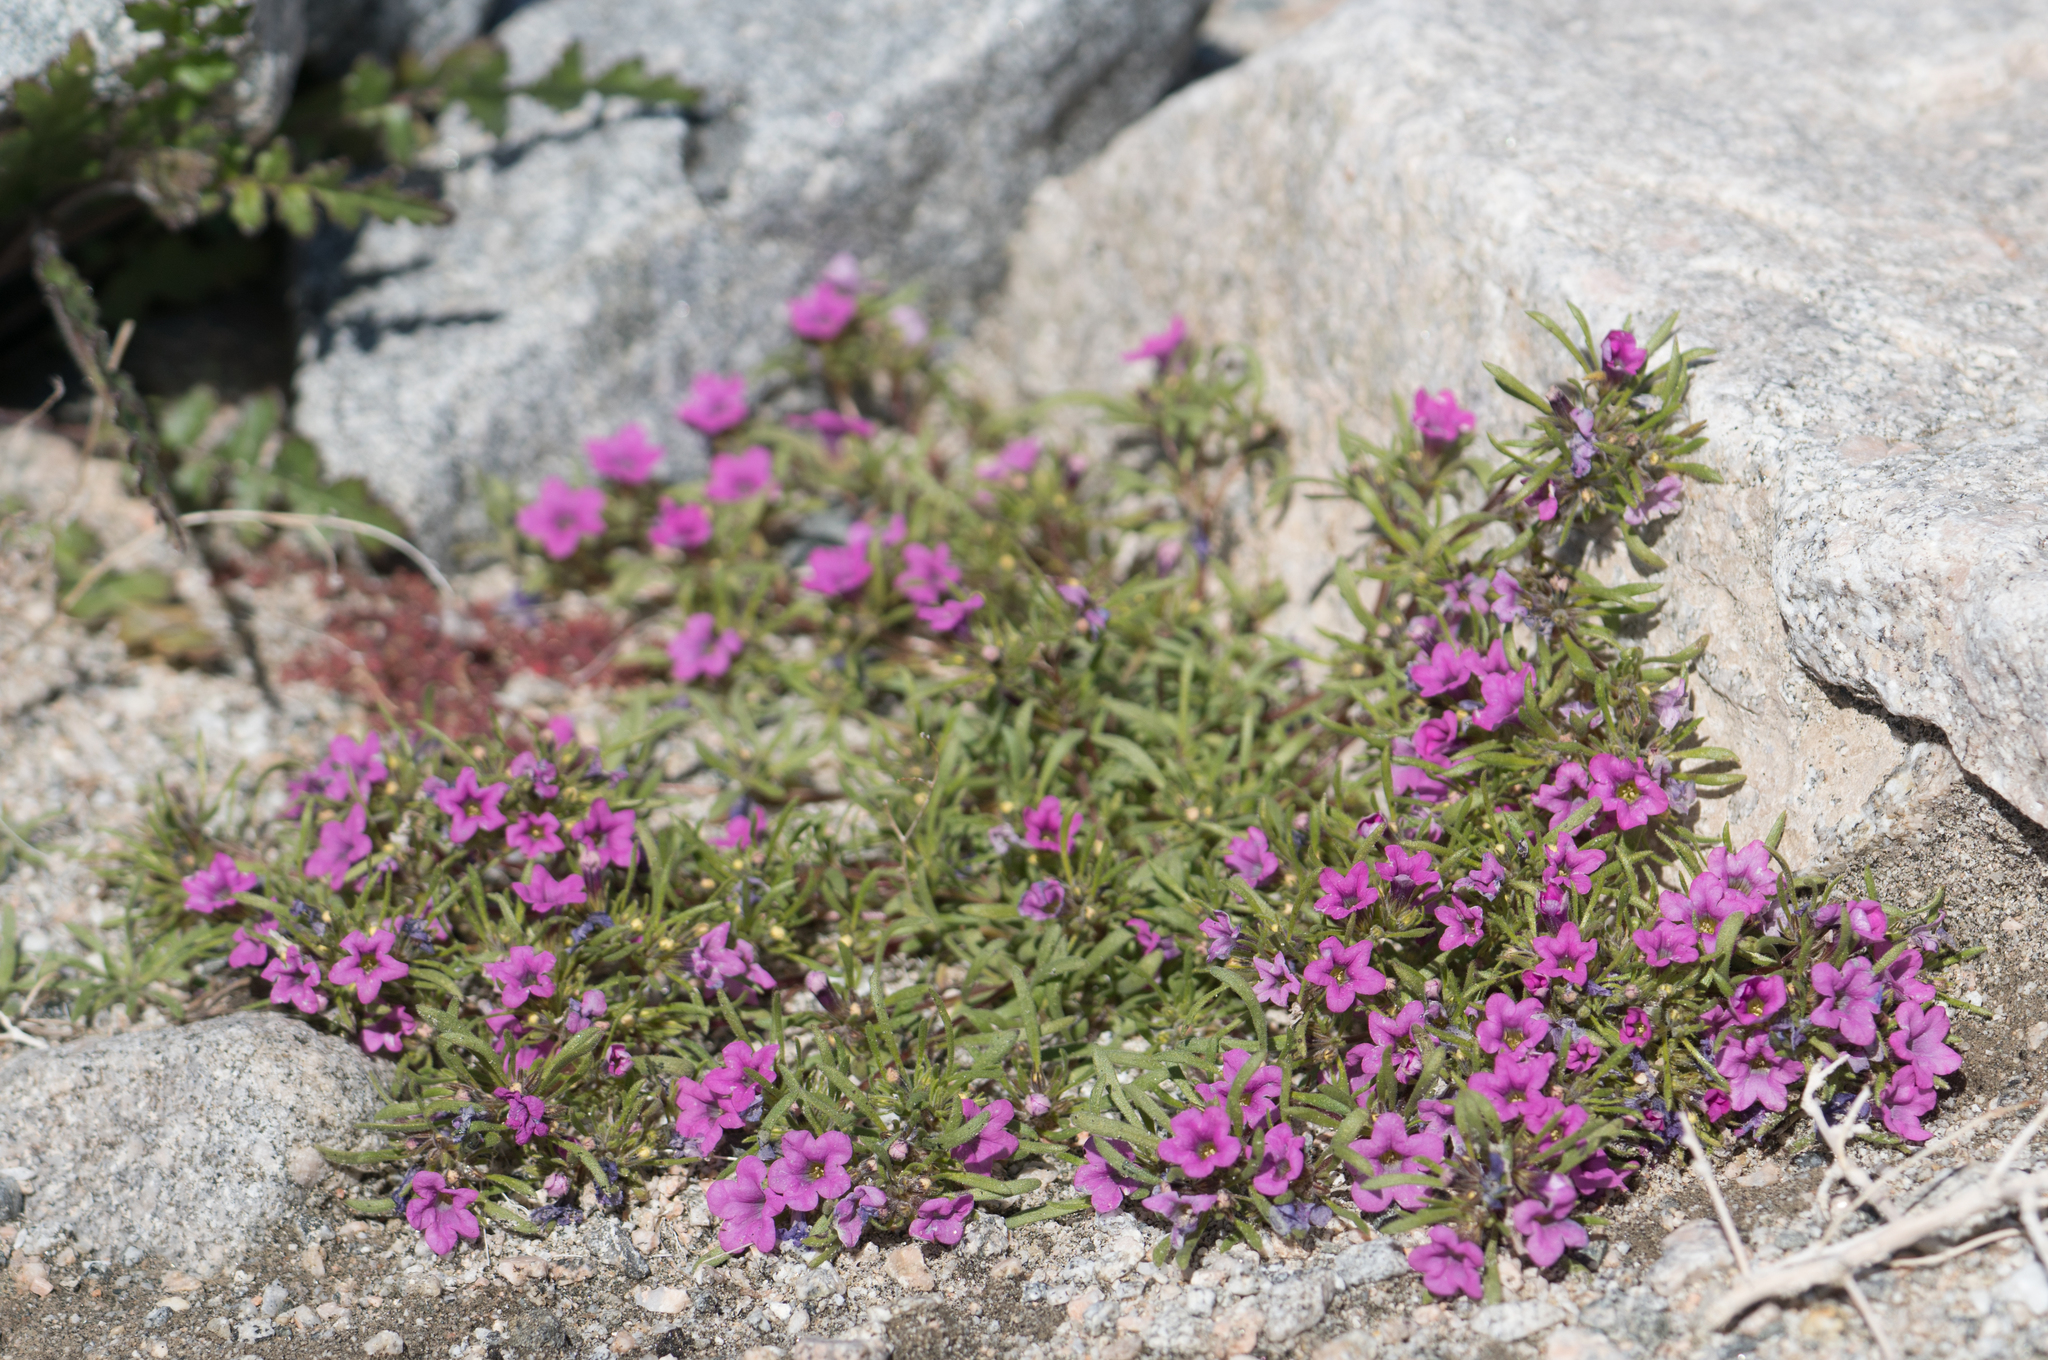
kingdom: Plantae
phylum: Tracheophyta
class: Magnoliopsida
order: Boraginales
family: Namaceae
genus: Nama
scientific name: Nama demissa
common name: Leafy nama
